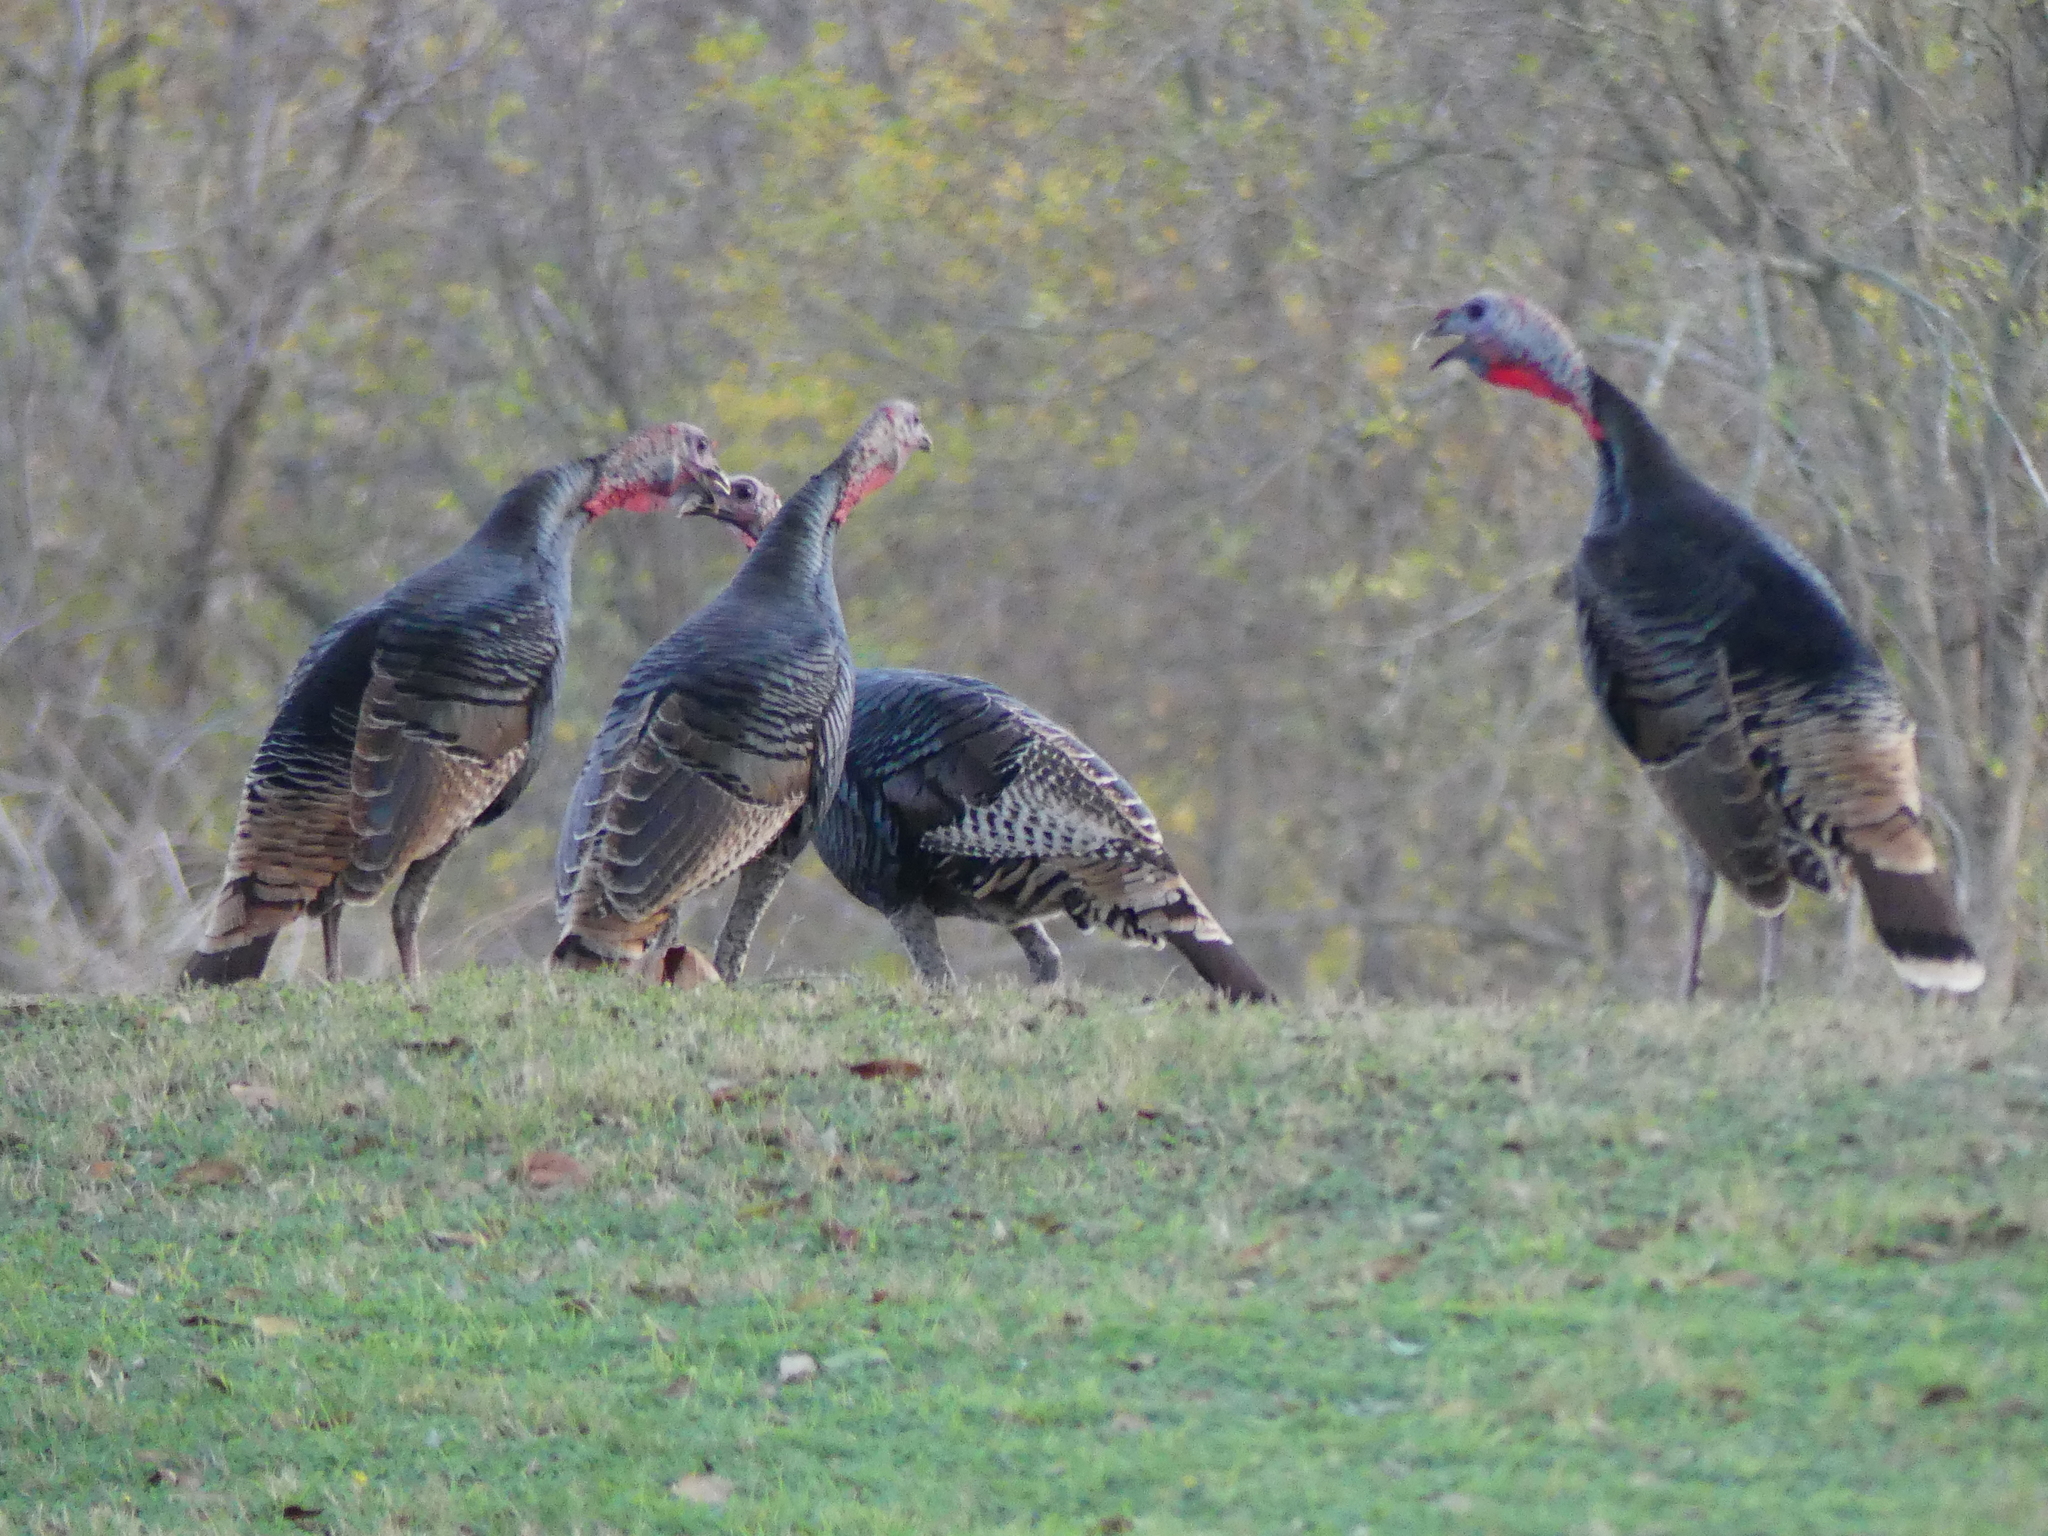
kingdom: Animalia
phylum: Chordata
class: Aves
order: Galliformes
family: Phasianidae
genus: Meleagris
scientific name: Meleagris gallopavo
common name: Wild turkey
